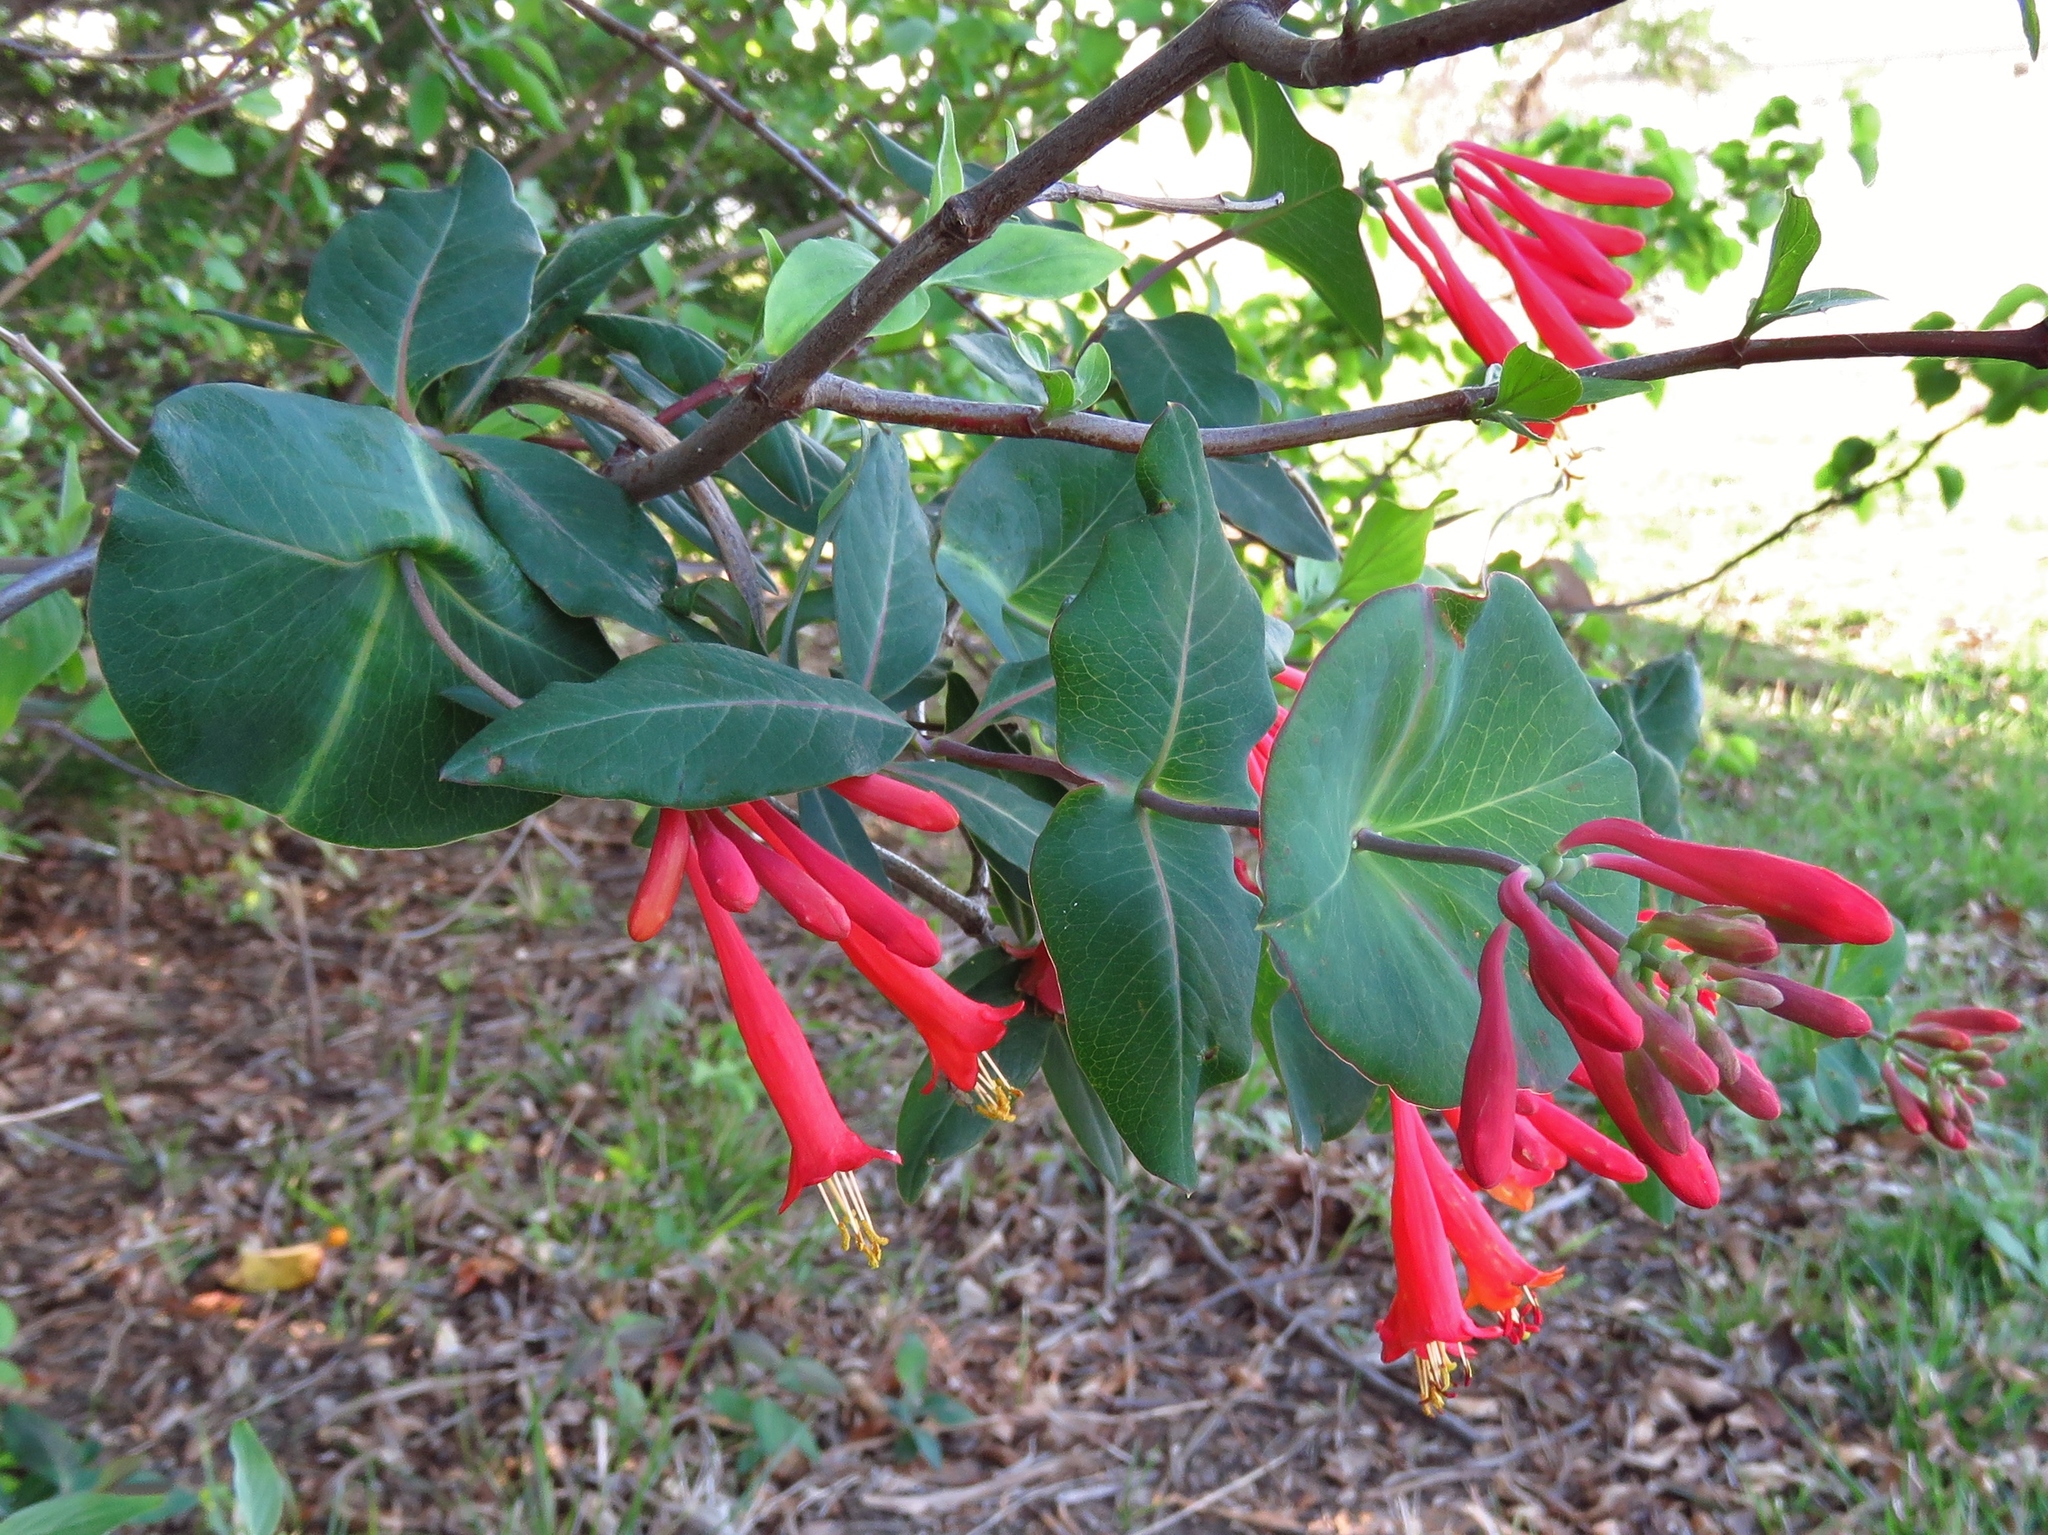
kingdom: Plantae
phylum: Tracheophyta
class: Magnoliopsida
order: Dipsacales
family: Caprifoliaceae
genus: Lonicera
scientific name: Lonicera sempervirens
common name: Coral honeysuckle
